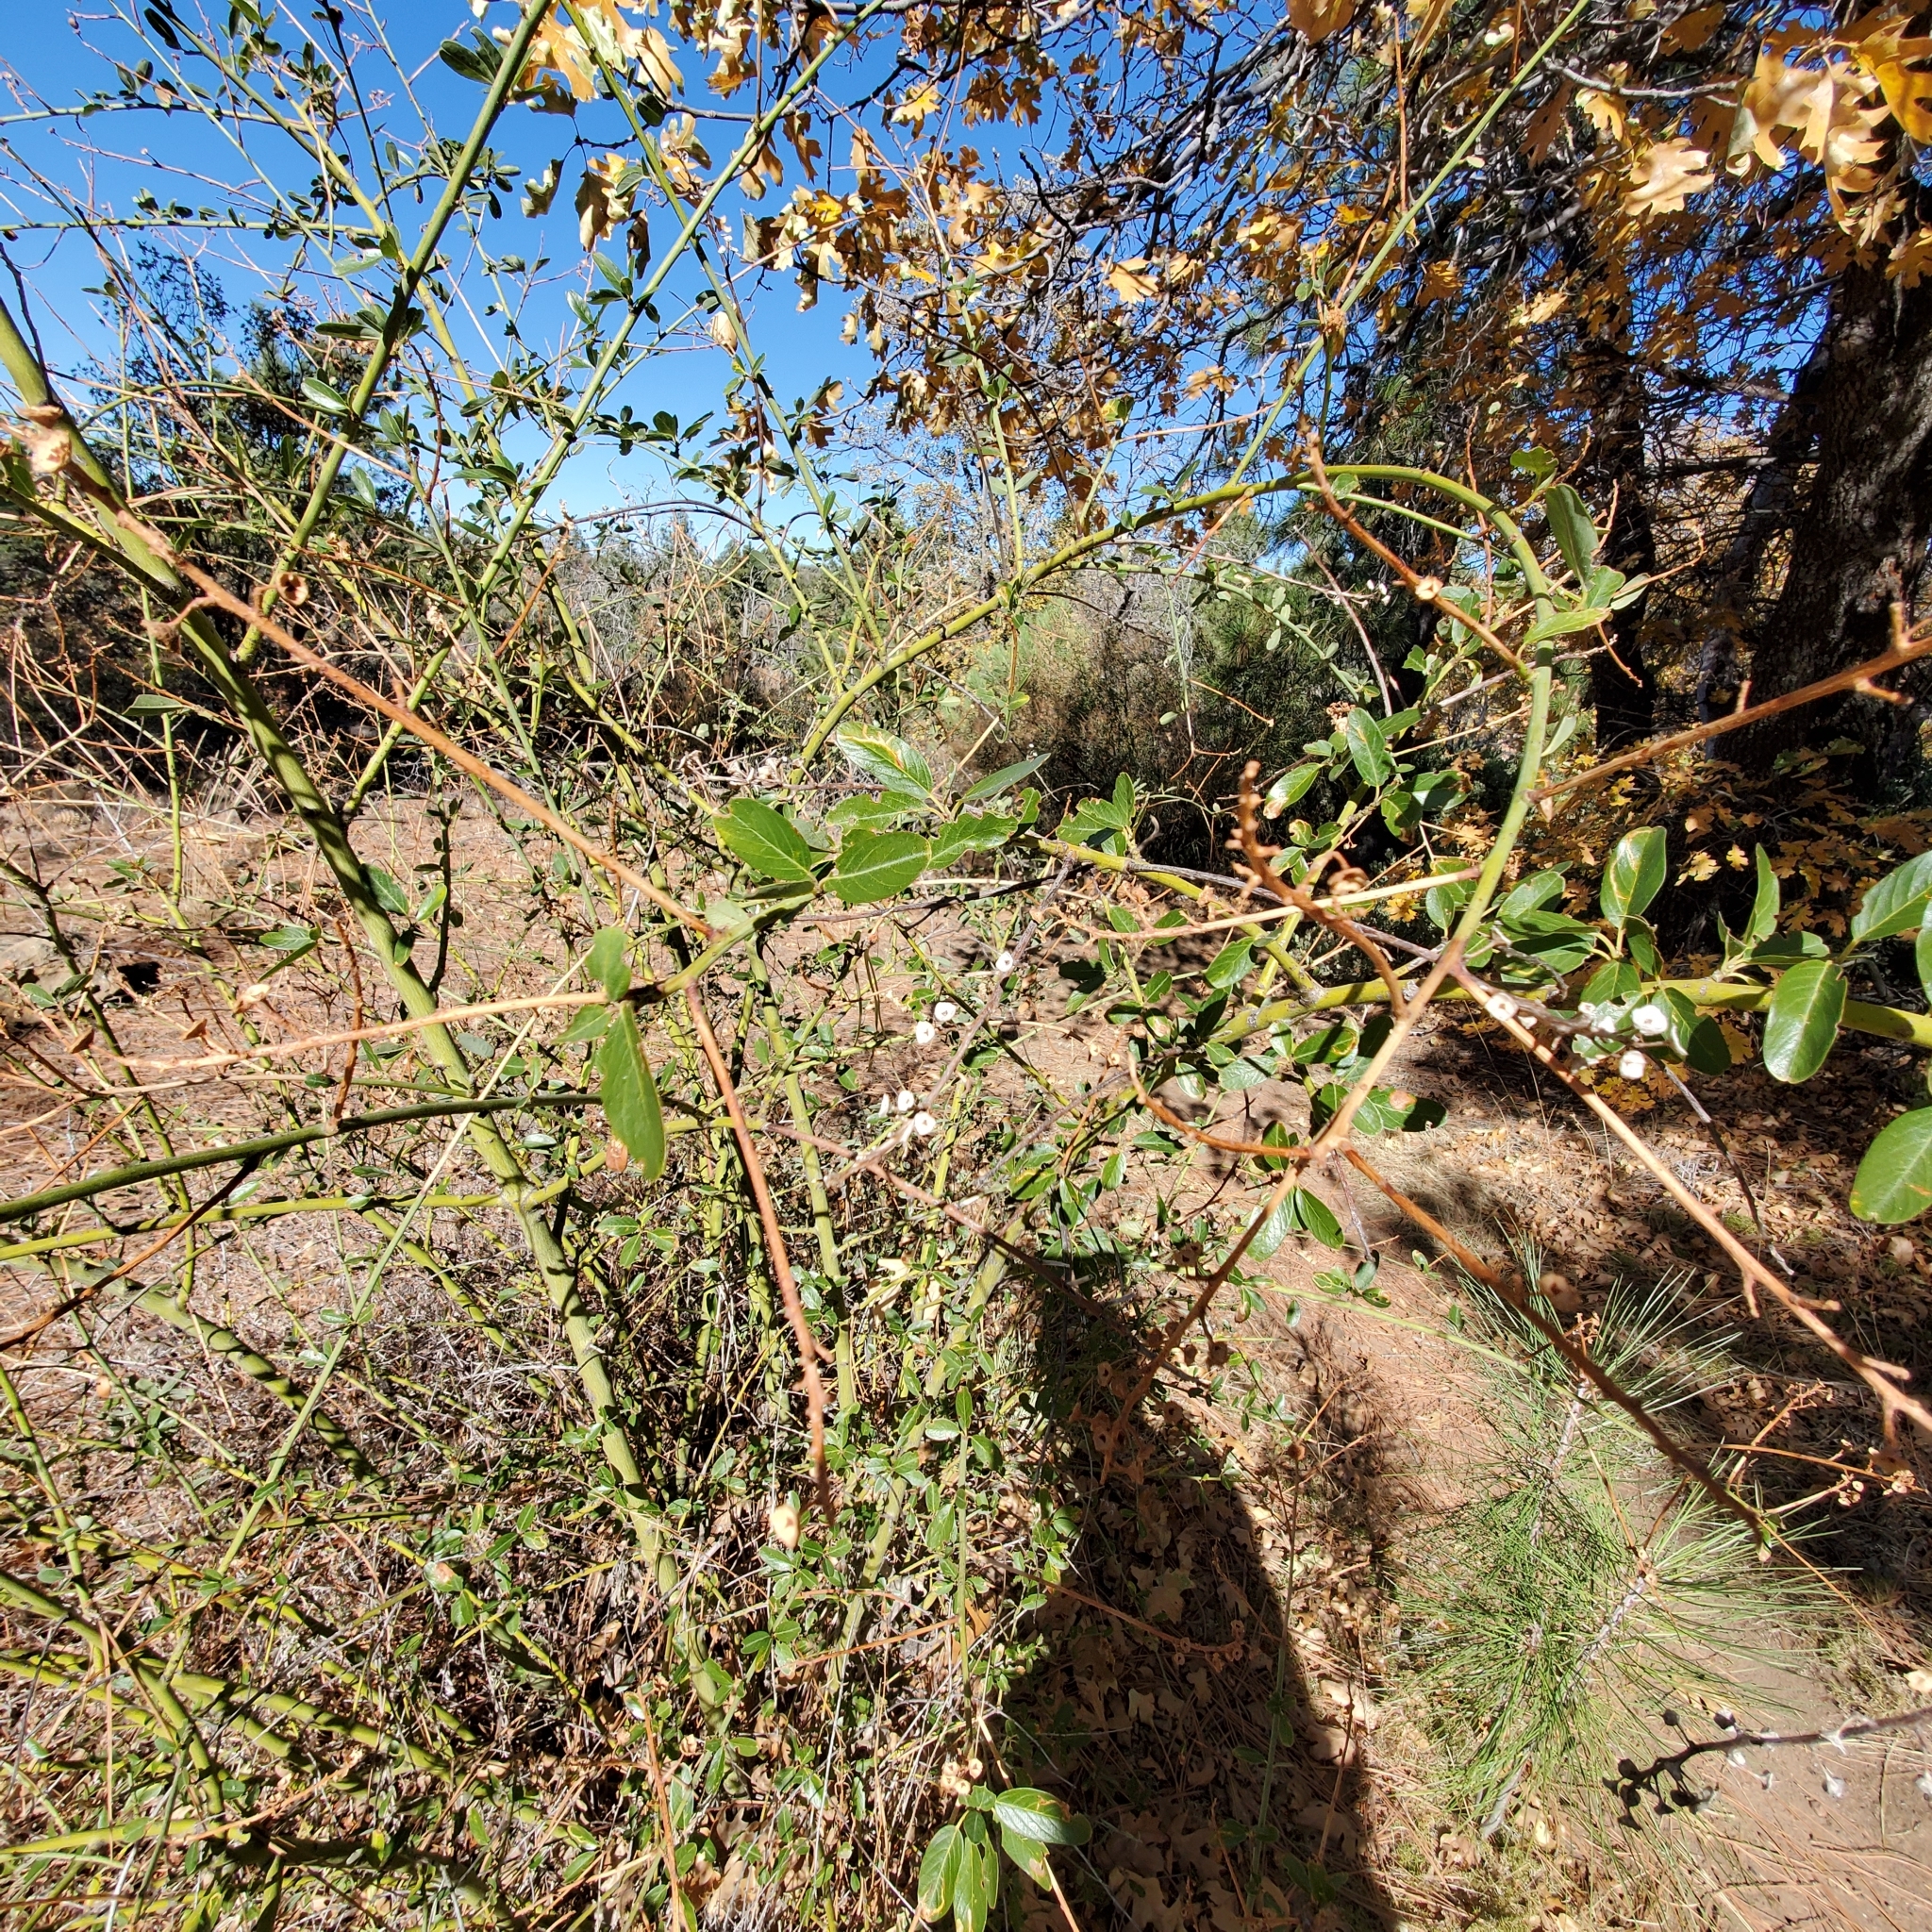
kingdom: Plantae
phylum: Tracheophyta
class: Magnoliopsida
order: Rosales
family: Rhamnaceae
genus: Ceanothus
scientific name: Ceanothus palmeri
